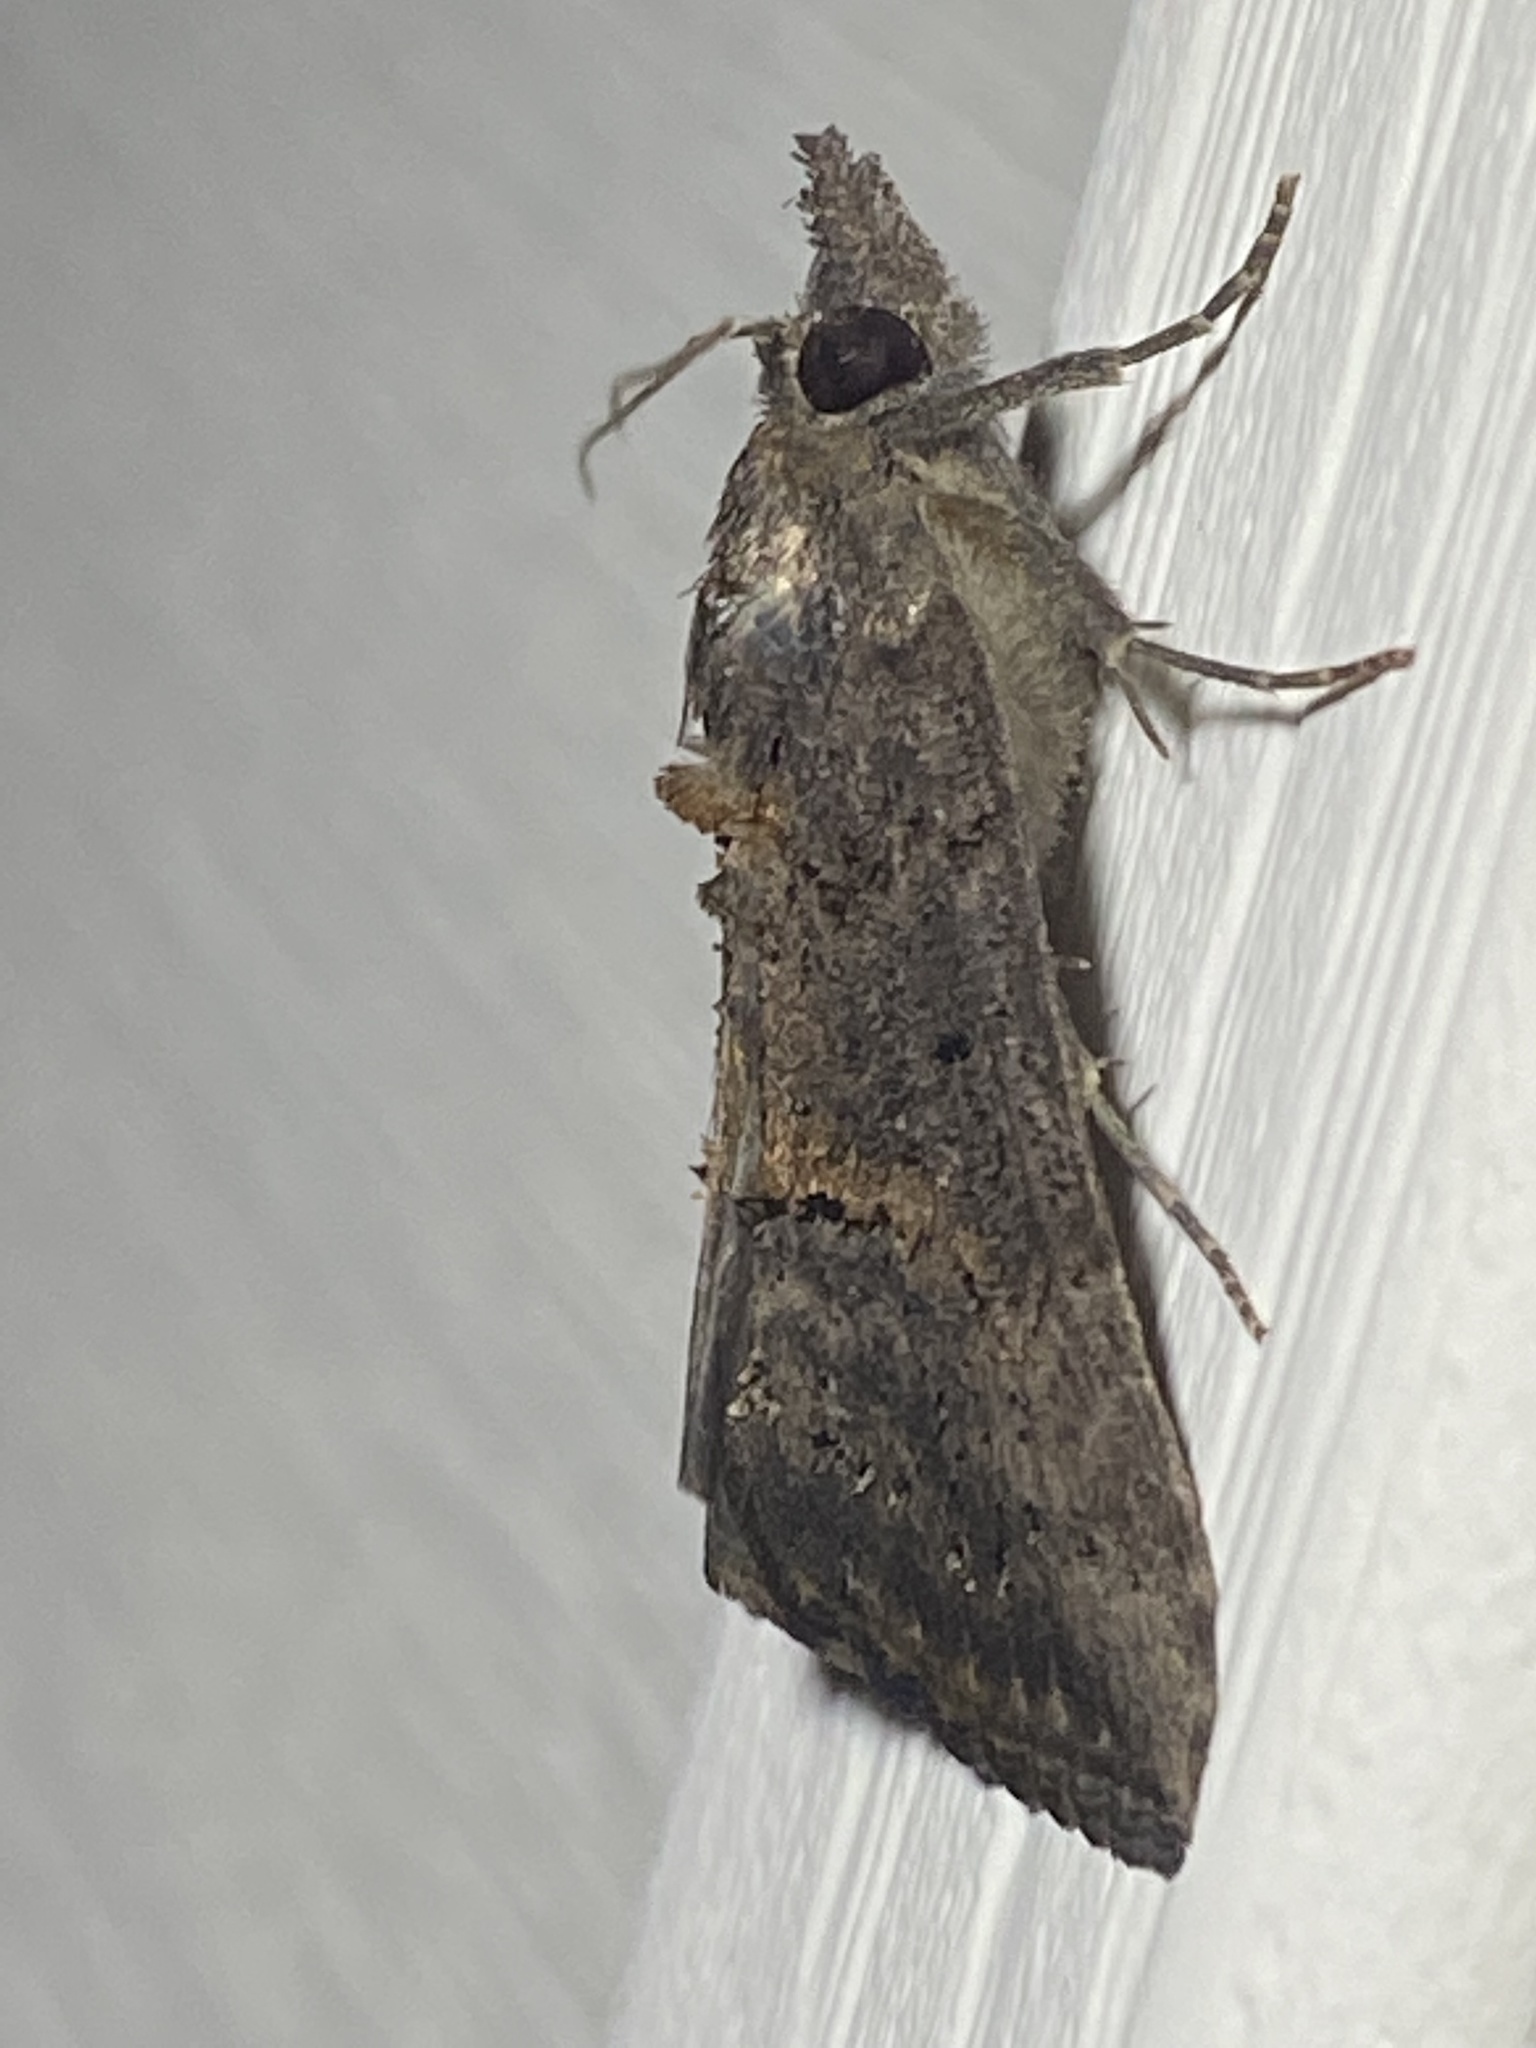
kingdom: Animalia
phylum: Arthropoda
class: Insecta
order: Lepidoptera
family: Erebidae
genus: Hypena
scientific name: Hypena scabra
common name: Green cloverworm
